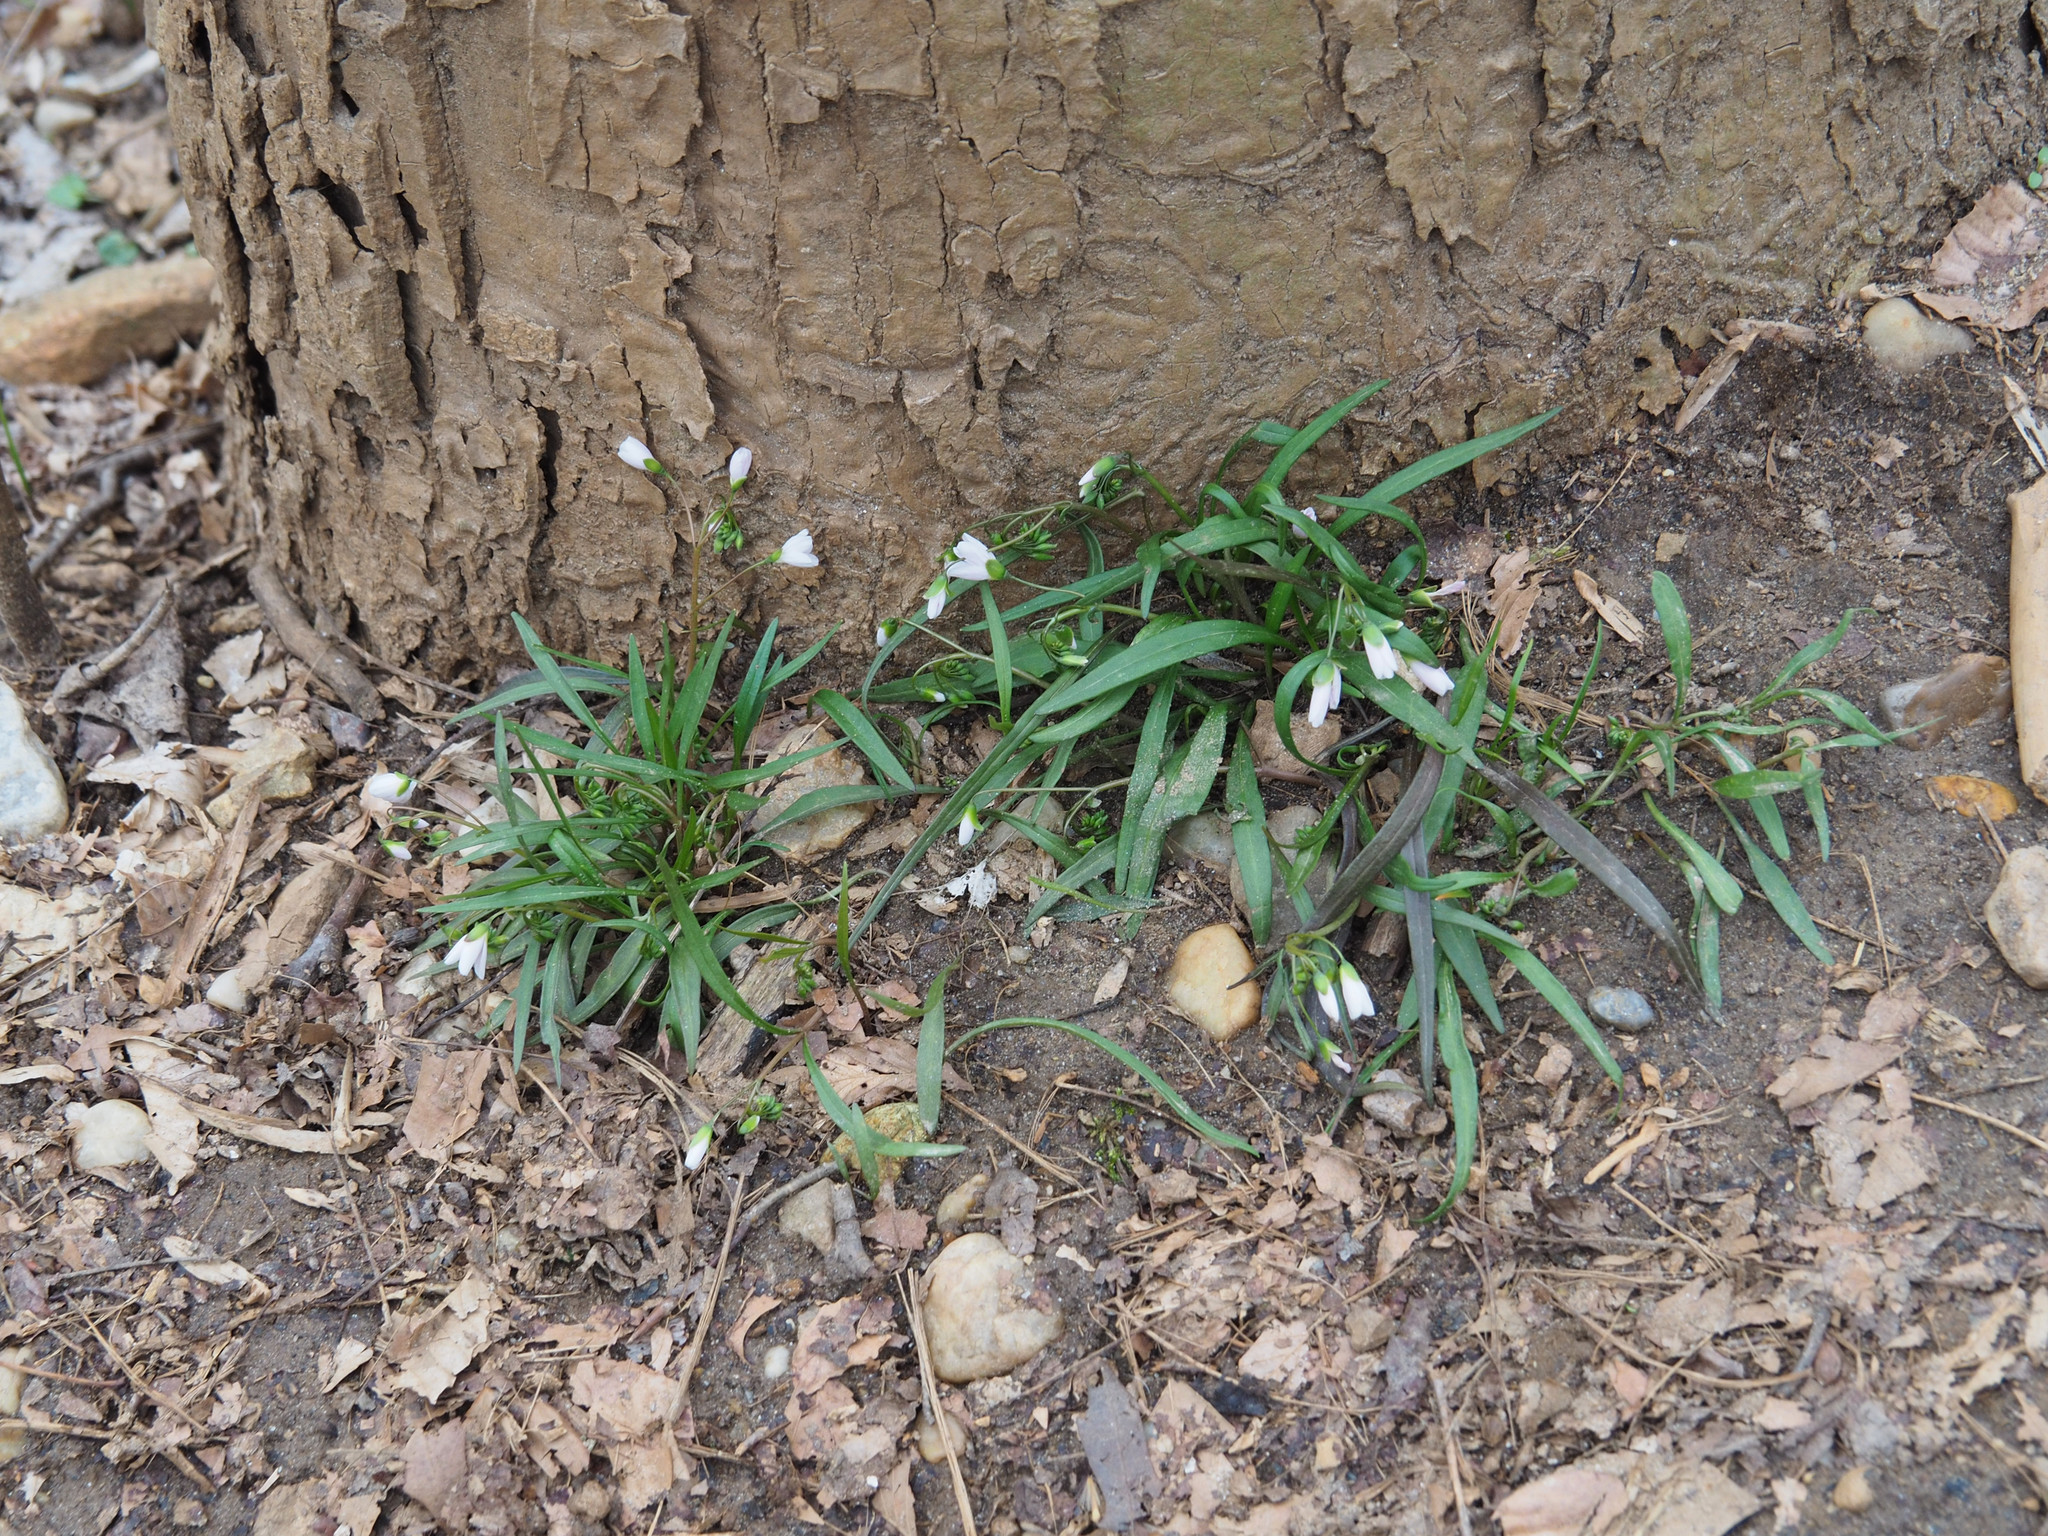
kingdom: Plantae
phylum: Tracheophyta
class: Magnoliopsida
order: Caryophyllales
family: Montiaceae
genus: Claytonia
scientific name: Claytonia virginica
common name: Virginia springbeauty
